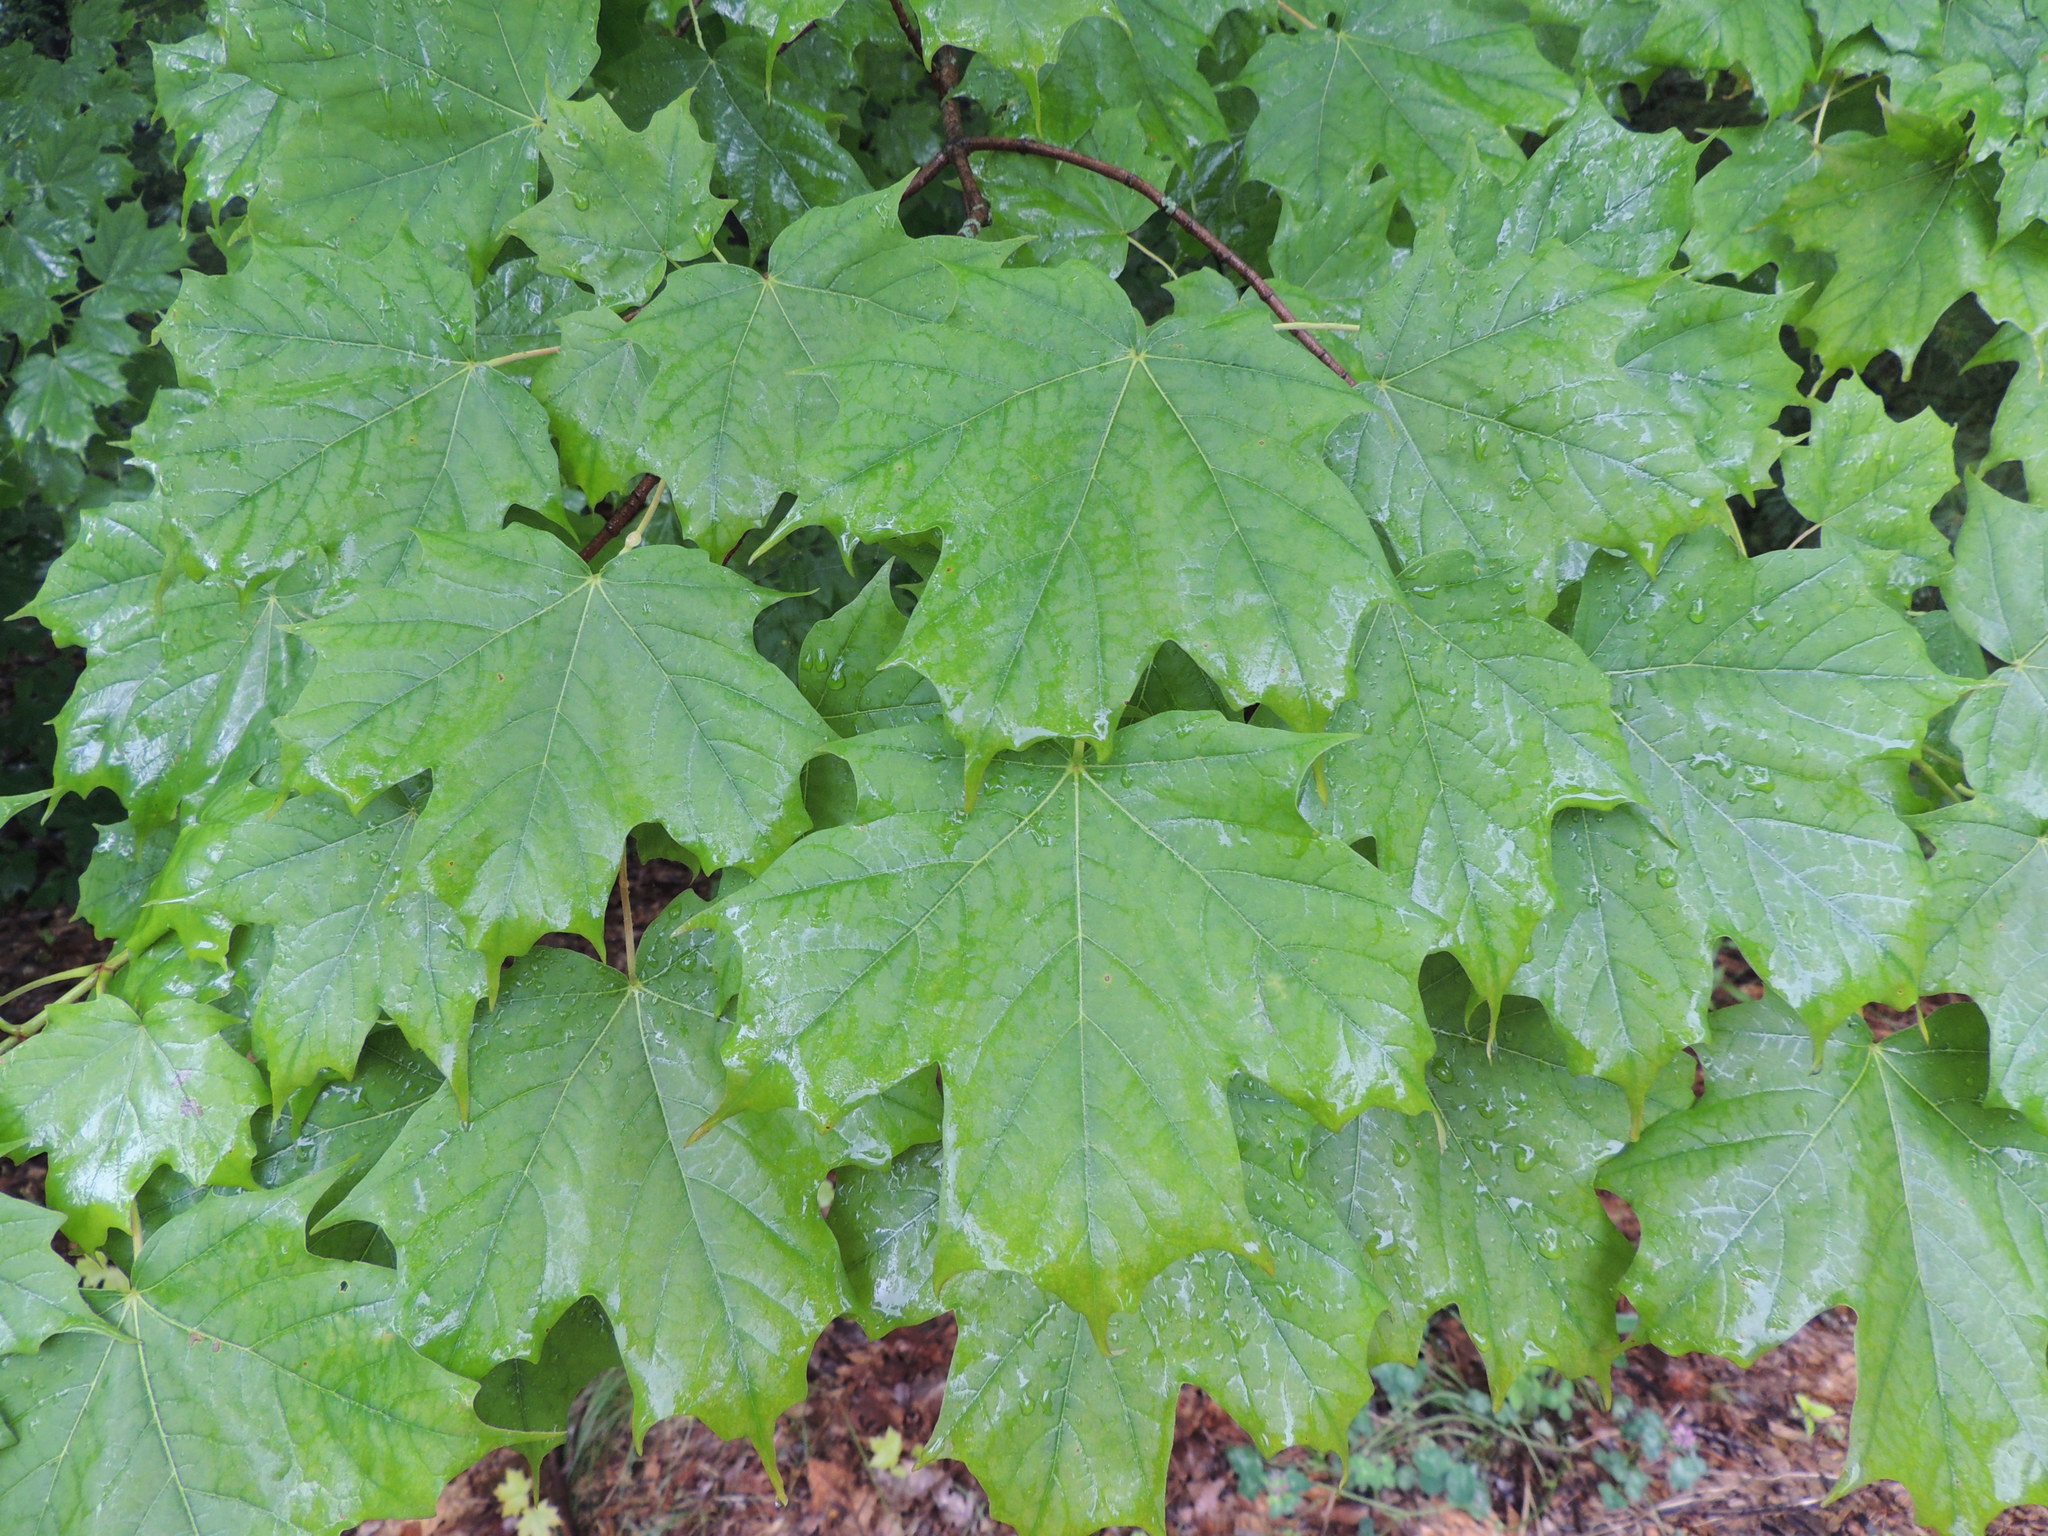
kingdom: Plantae
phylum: Tracheophyta
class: Magnoliopsida
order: Sapindales
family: Sapindaceae
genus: Acer
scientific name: Acer saccharum
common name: Sugar maple
